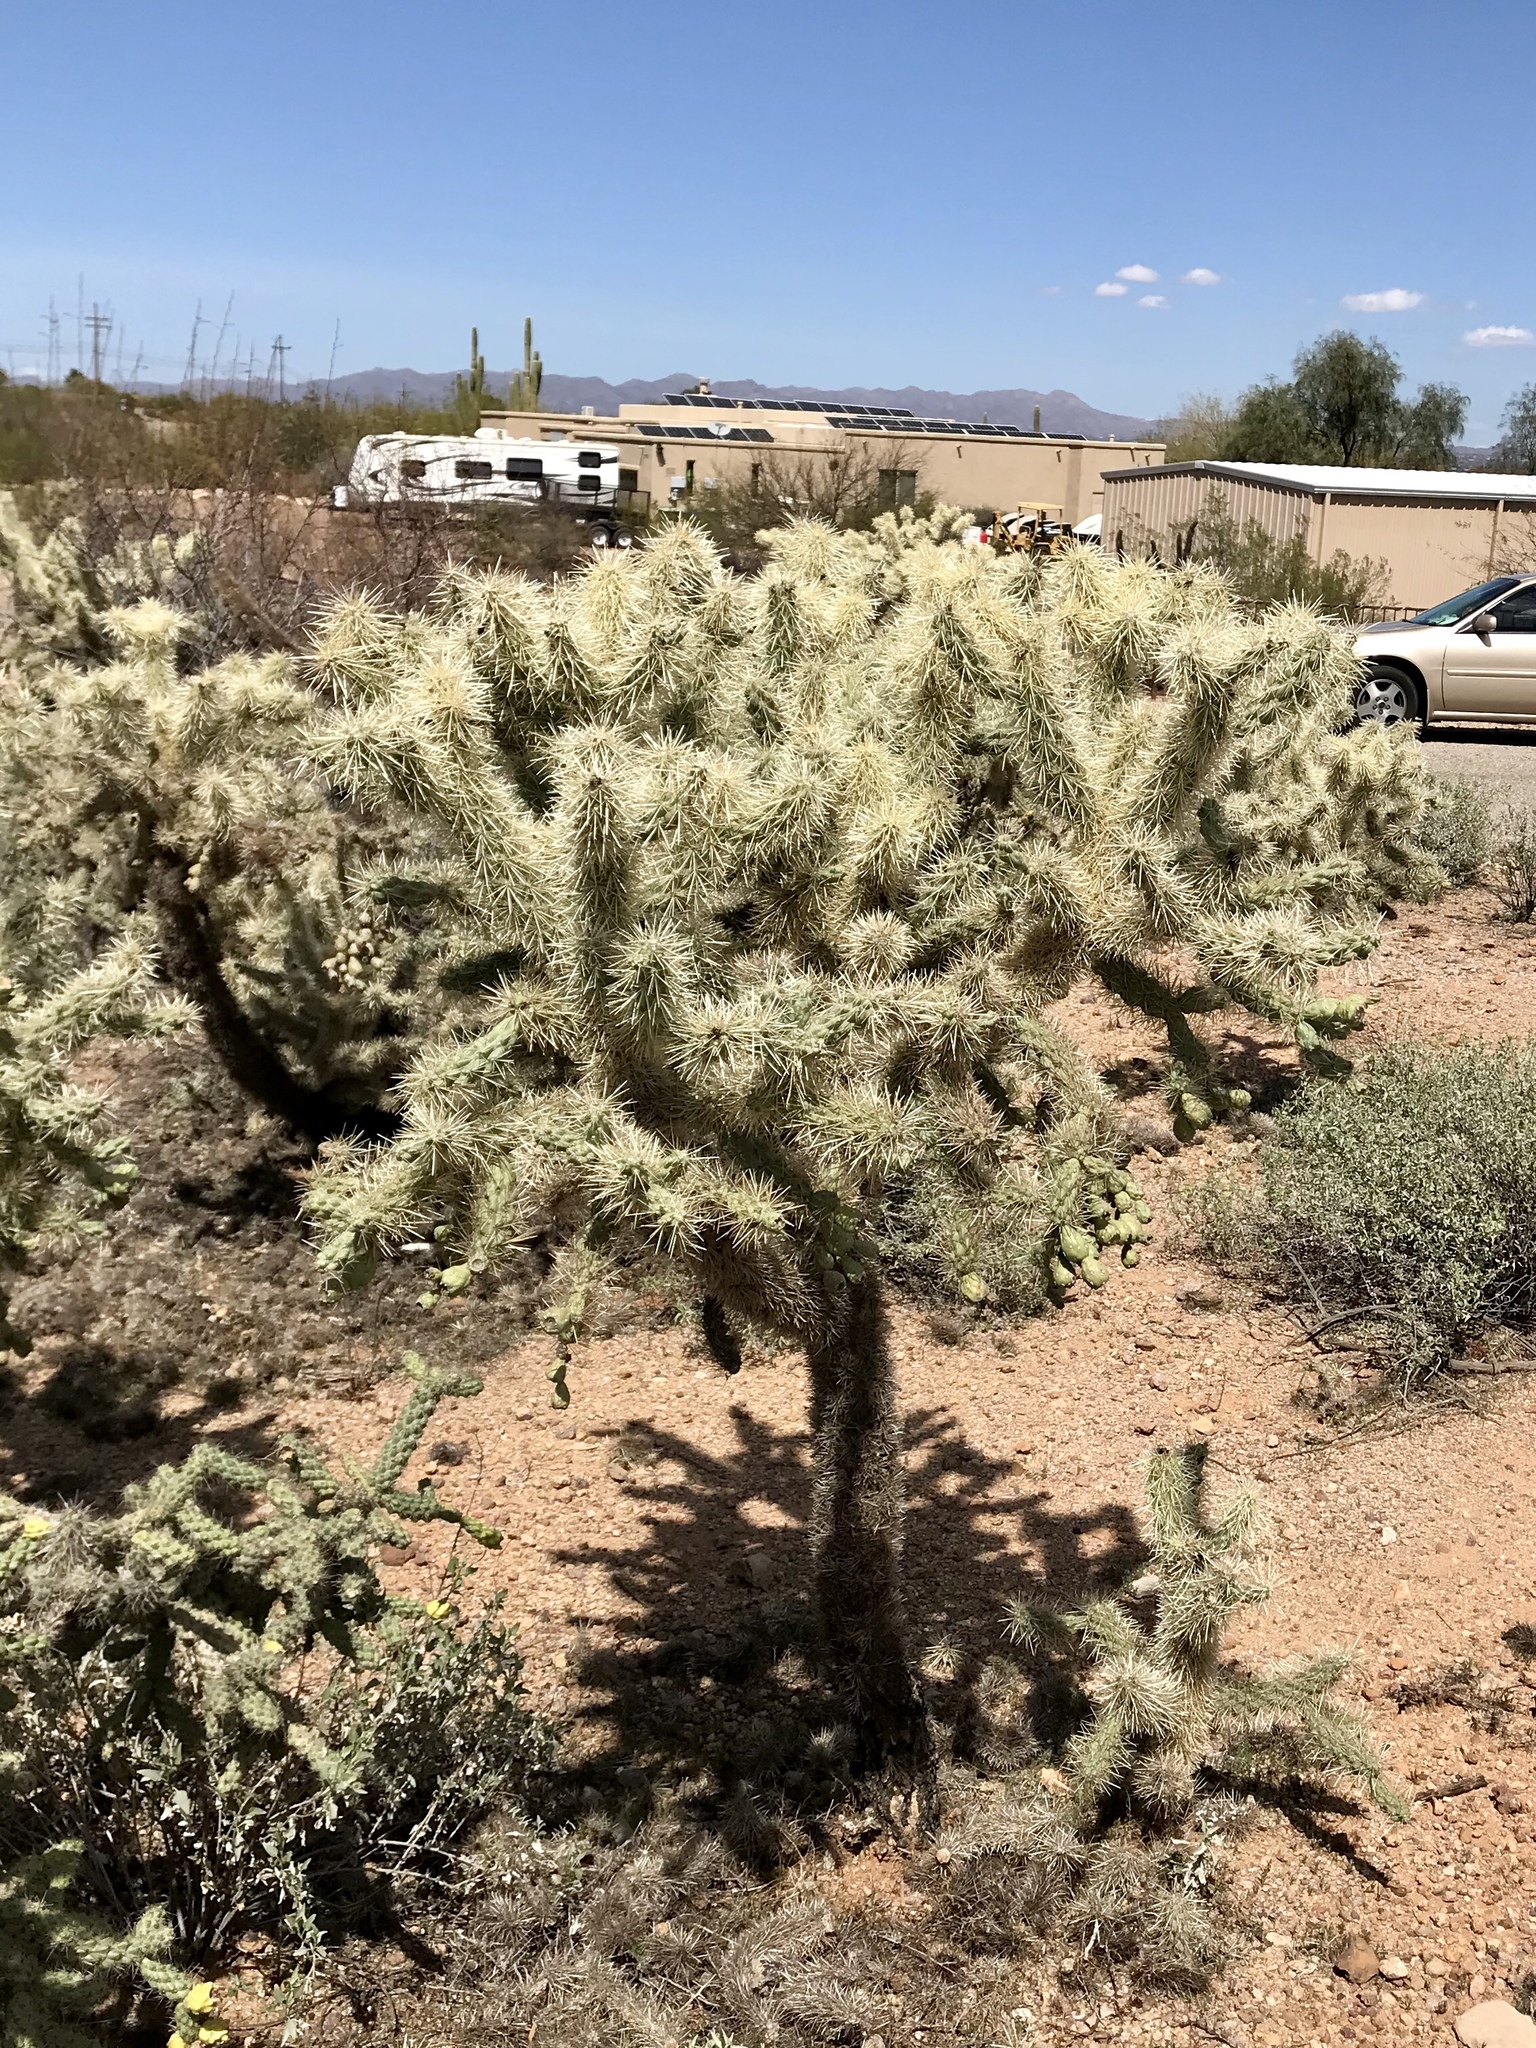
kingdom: Plantae
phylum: Tracheophyta
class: Magnoliopsida
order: Caryophyllales
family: Cactaceae
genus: Cylindropuntia
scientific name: Cylindropuntia fulgida
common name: Jumping cholla
